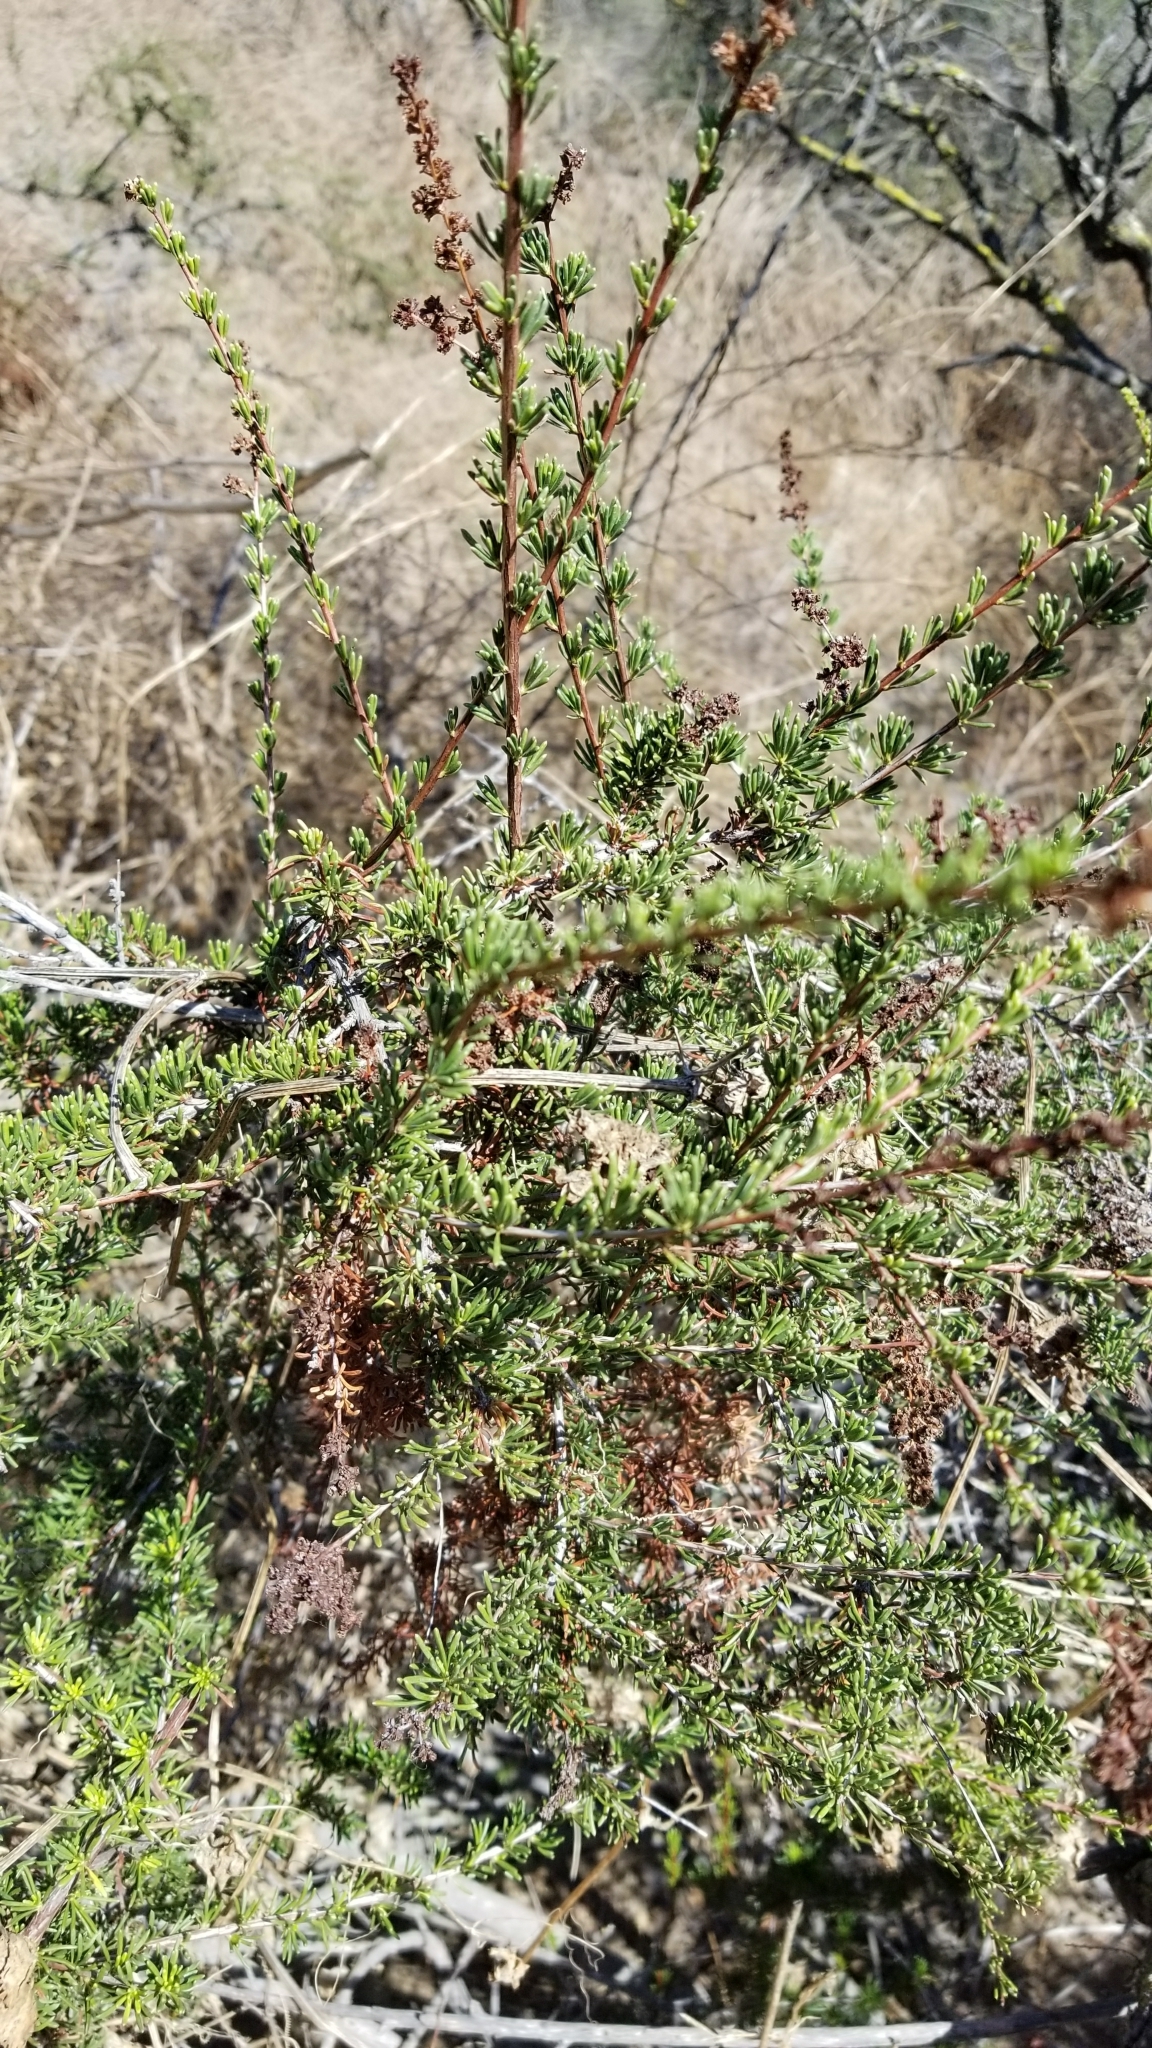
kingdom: Plantae
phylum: Tracheophyta
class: Magnoliopsida
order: Rosales
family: Rosaceae
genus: Adenostoma
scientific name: Adenostoma fasciculatum
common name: Chamise
